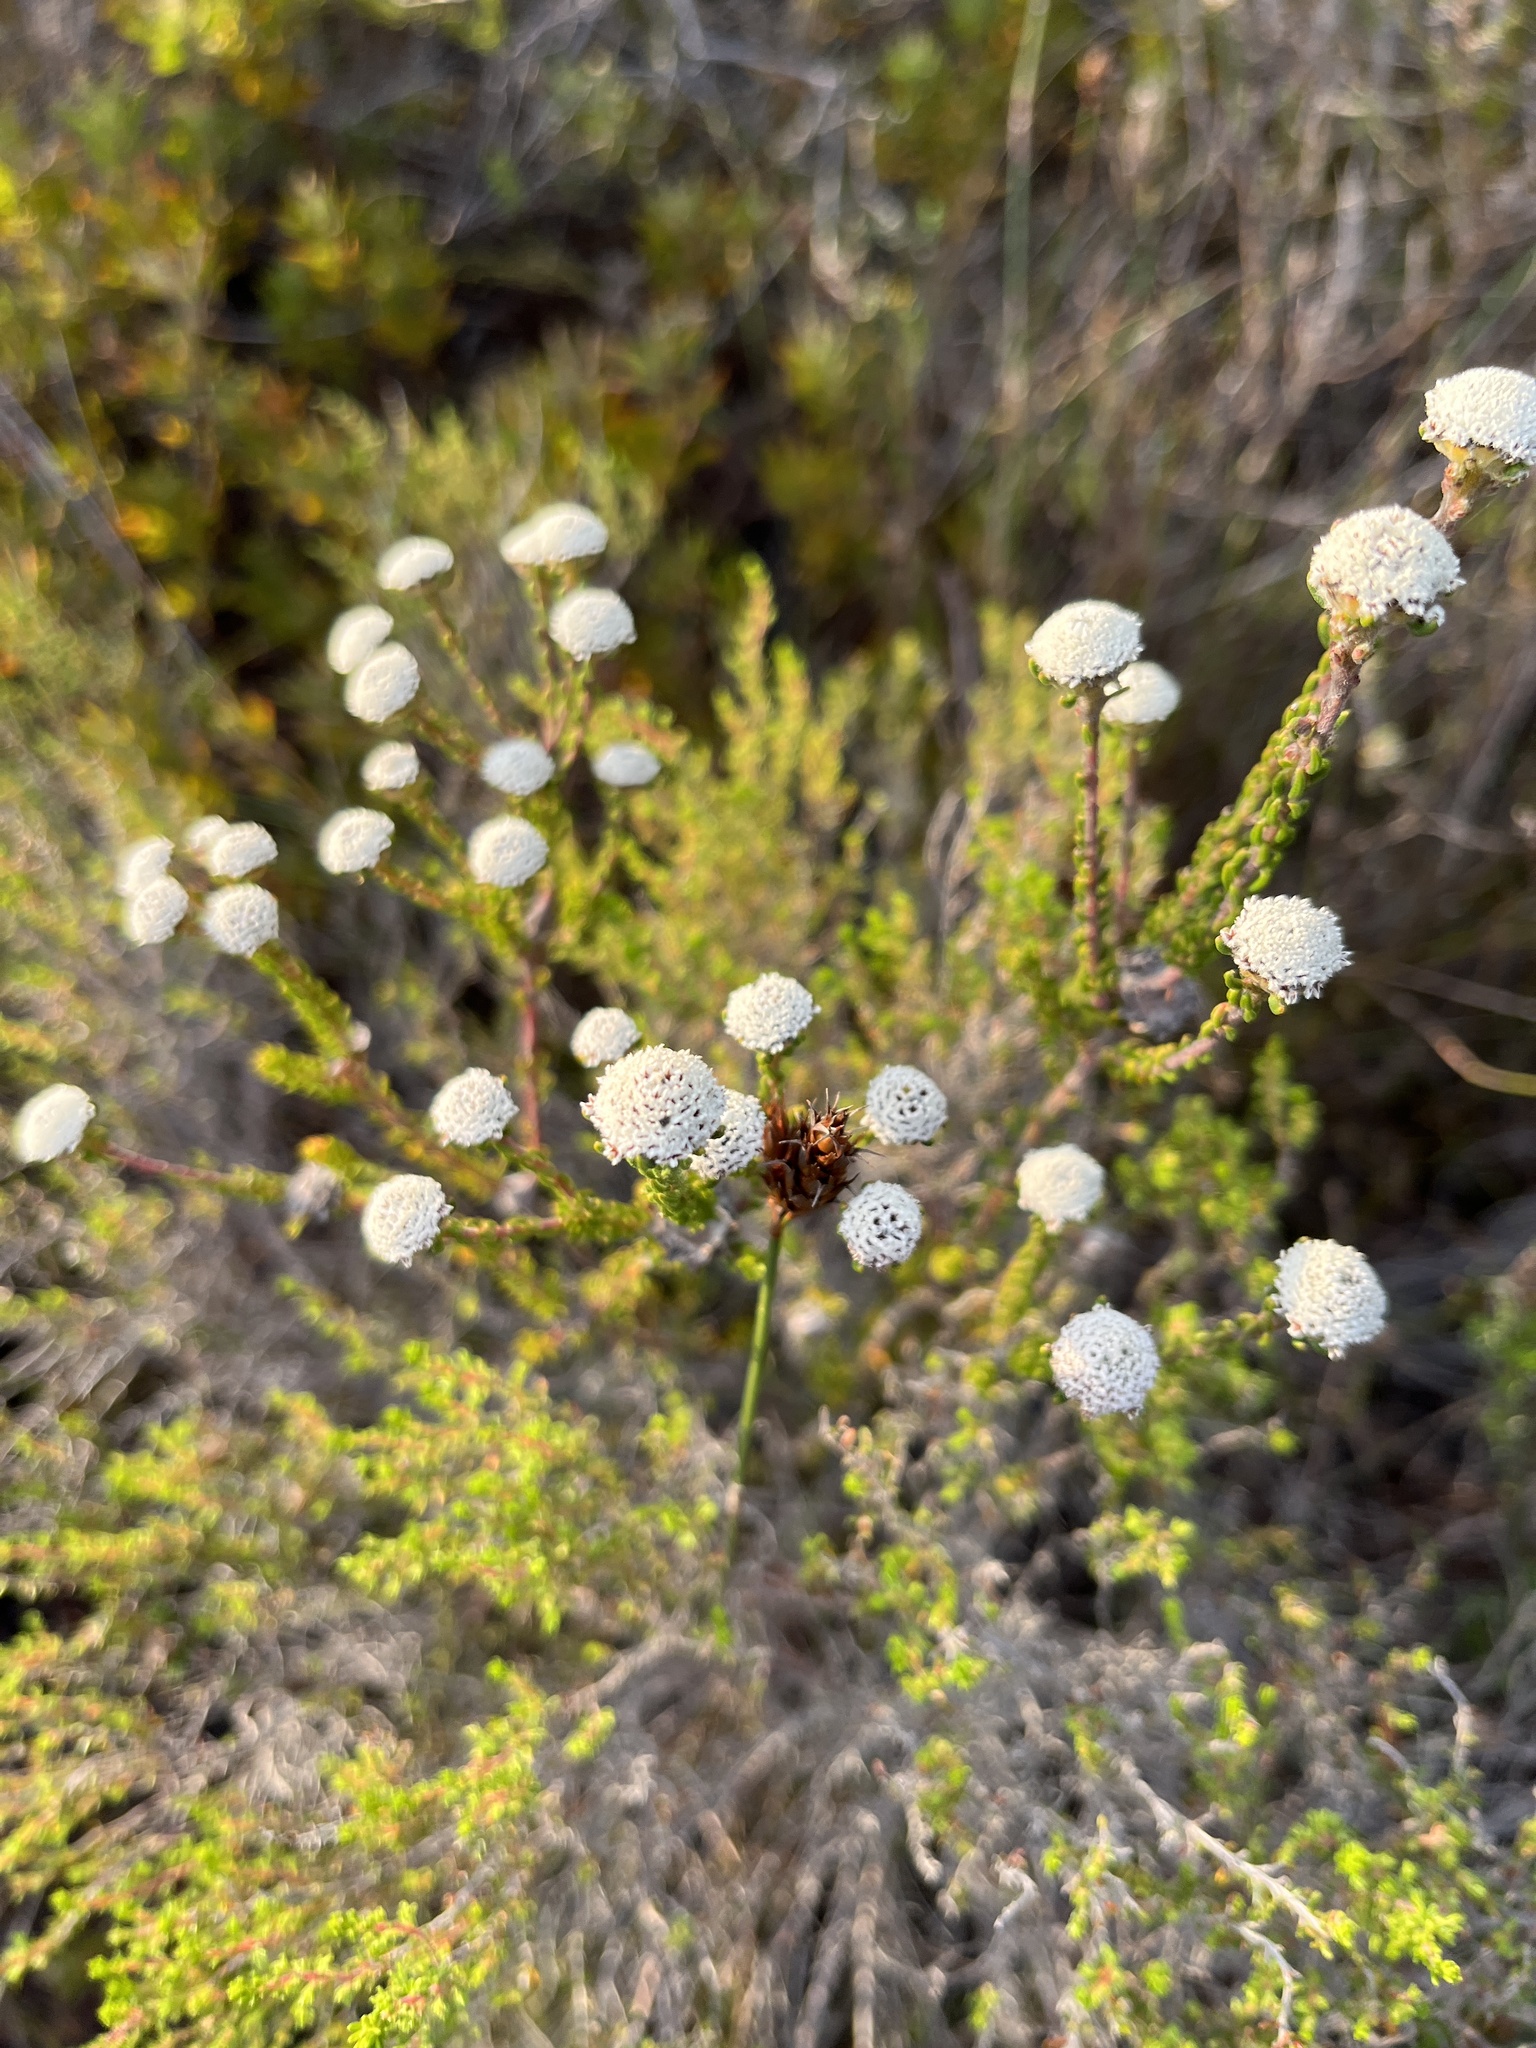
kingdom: Plantae
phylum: Tracheophyta
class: Magnoliopsida
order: Rosales
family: Rhamnaceae
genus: Phylica
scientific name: Phylica selaginoides
